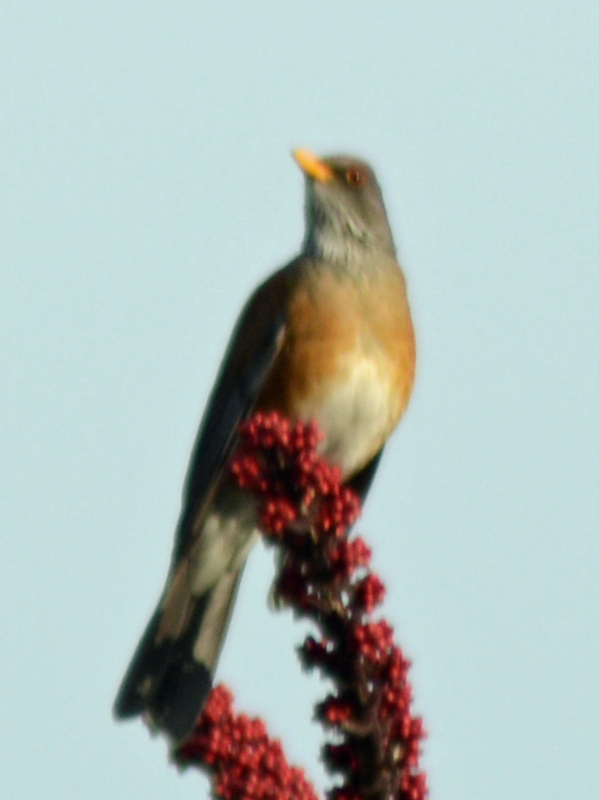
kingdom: Animalia
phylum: Chordata
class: Aves
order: Passeriformes
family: Turdidae
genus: Turdus
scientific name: Turdus rufopalliatus
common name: Rufous-backed robin
